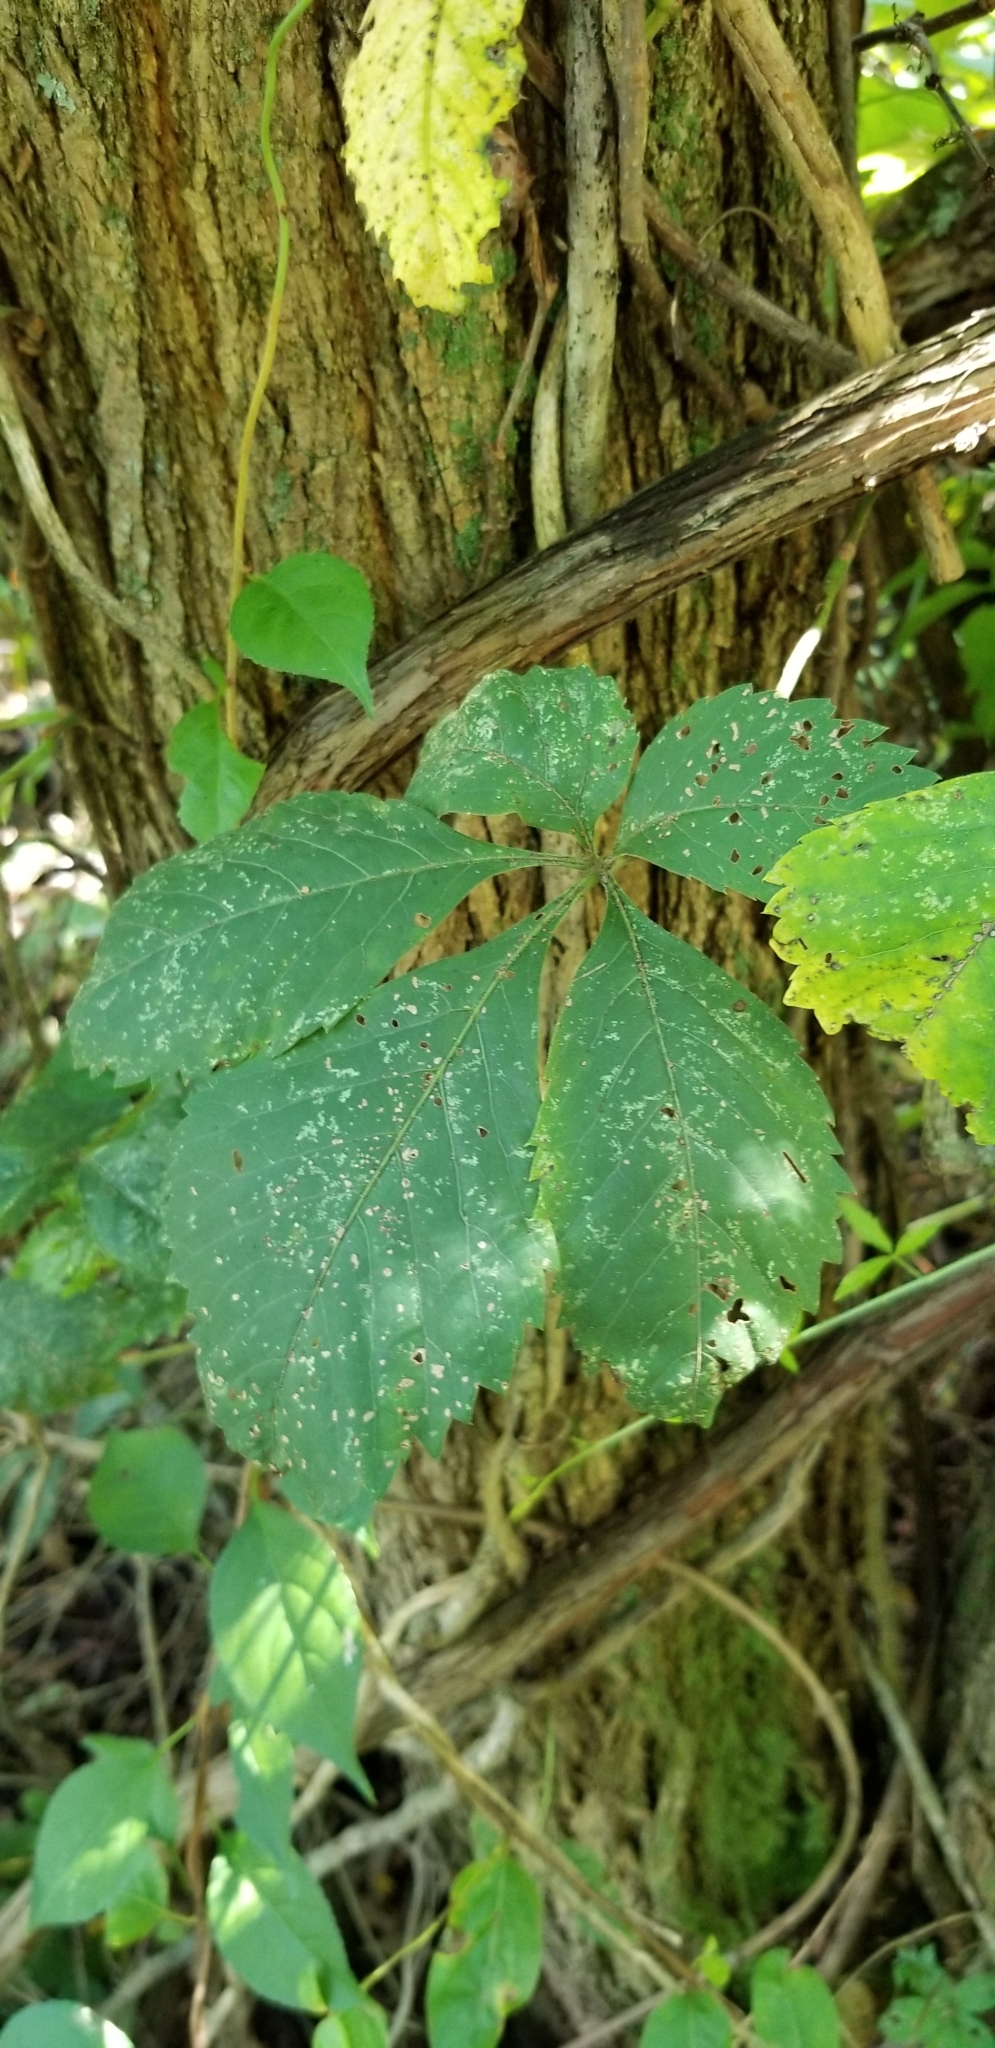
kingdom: Plantae
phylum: Tracheophyta
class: Magnoliopsida
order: Vitales
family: Vitaceae
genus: Parthenocissus
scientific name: Parthenocissus quinquefolia
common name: Virginia-creeper
